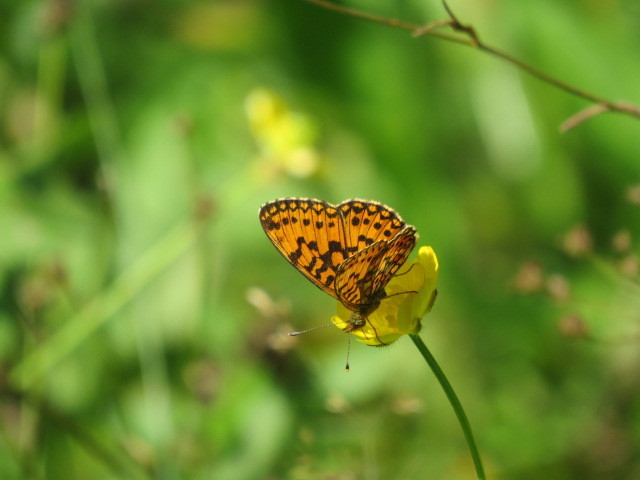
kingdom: Animalia
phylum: Arthropoda
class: Insecta
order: Lepidoptera
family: Nymphalidae
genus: Boloria
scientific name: Boloria selene
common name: Small pearl-bordered fritillary
